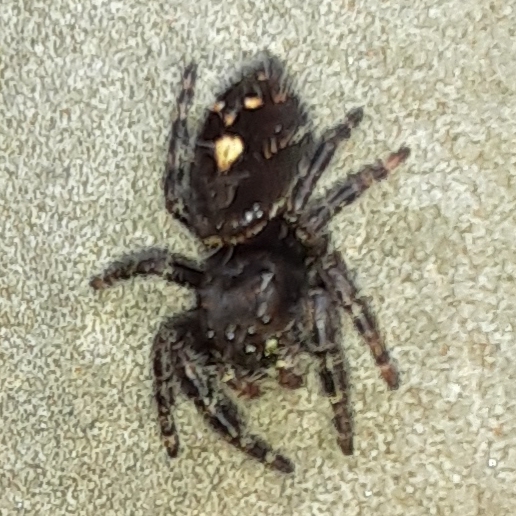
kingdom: Animalia
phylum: Arthropoda
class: Arachnida
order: Araneae
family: Salticidae
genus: Phidippus
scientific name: Phidippus audax
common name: Bold jumper
